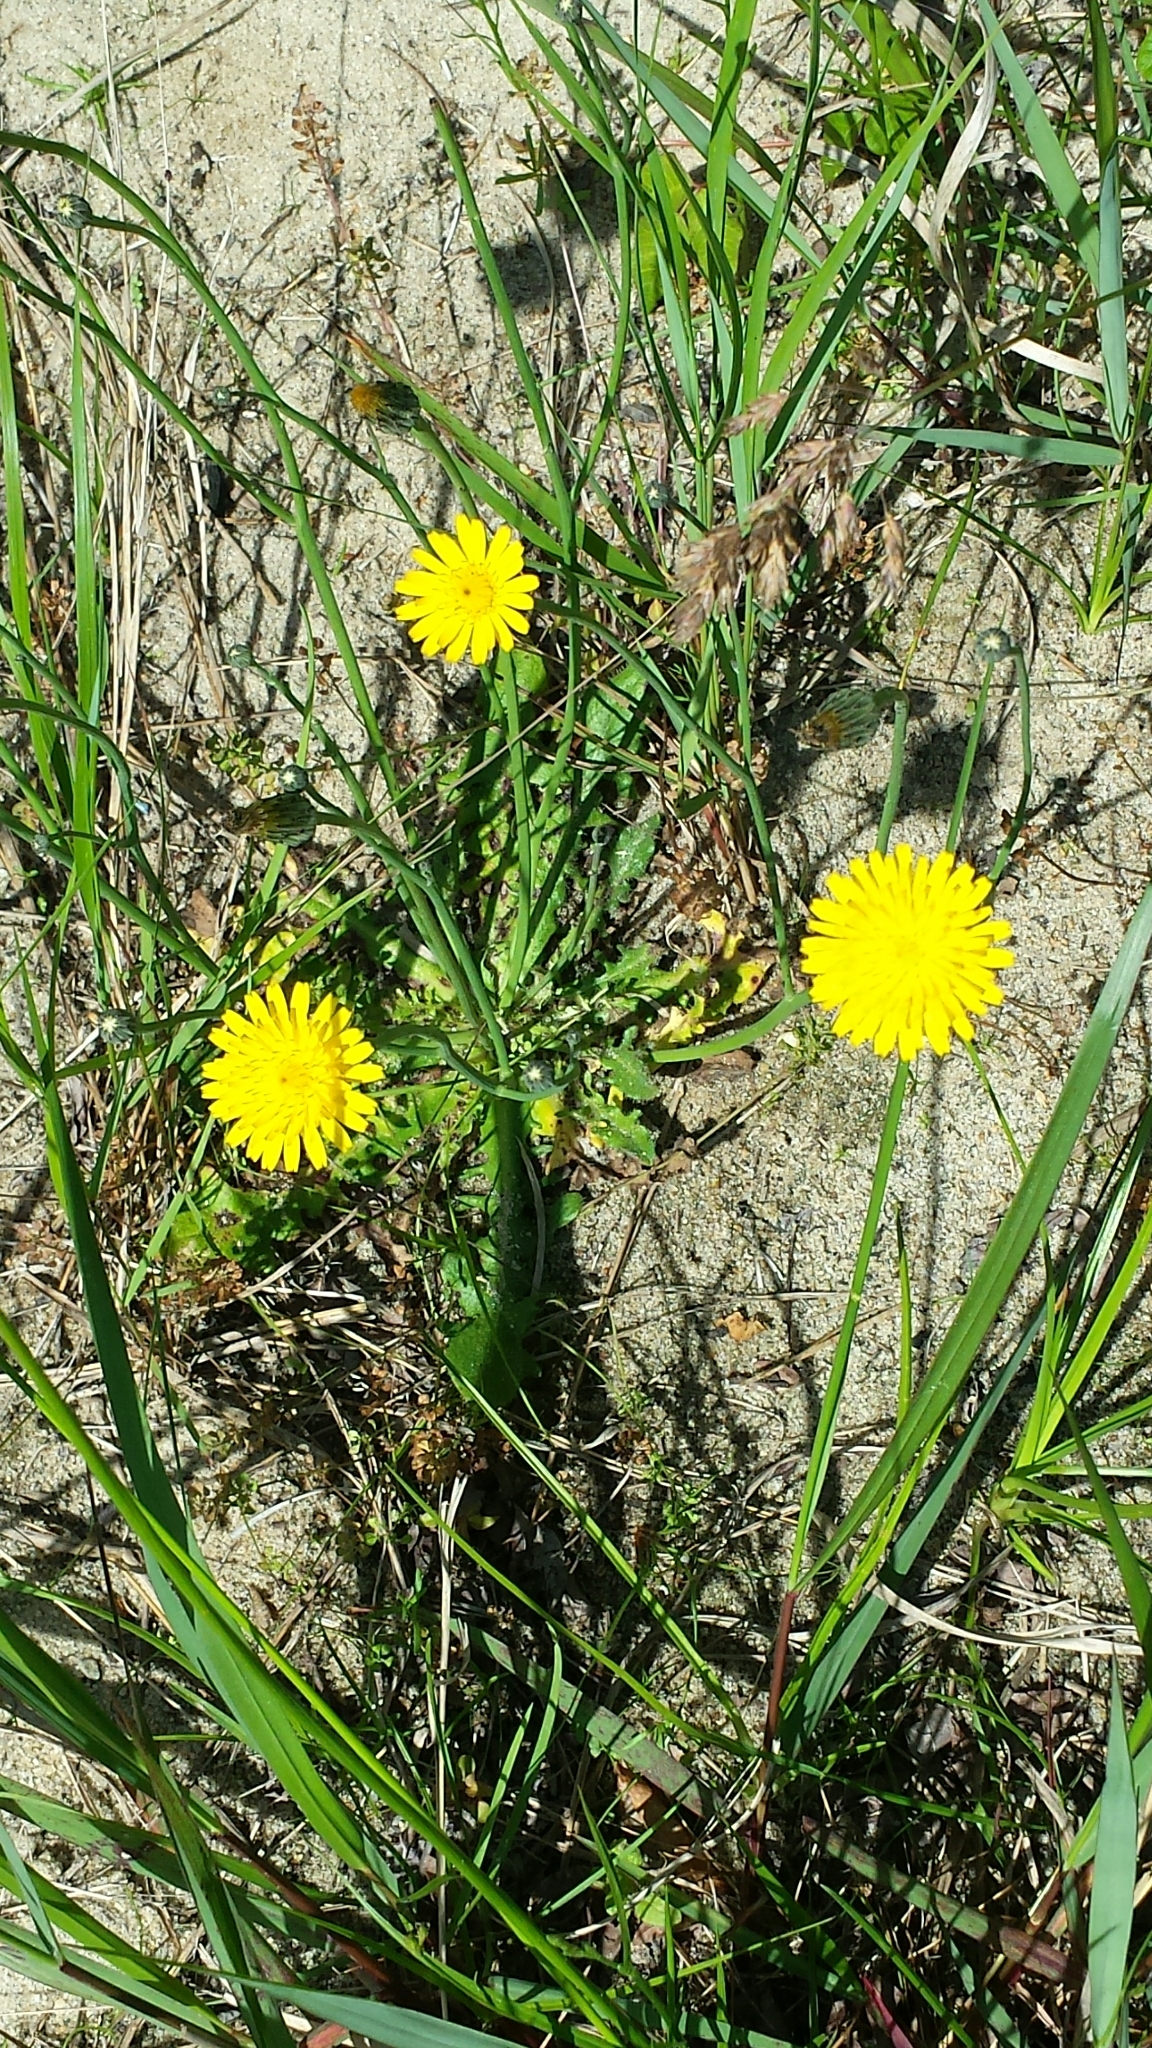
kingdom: Plantae
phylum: Tracheophyta
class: Magnoliopsida
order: Asterales
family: Asteraceae
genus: Pilosella
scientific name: Pilosella caespitosa
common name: Yellow fox-and-cubs
